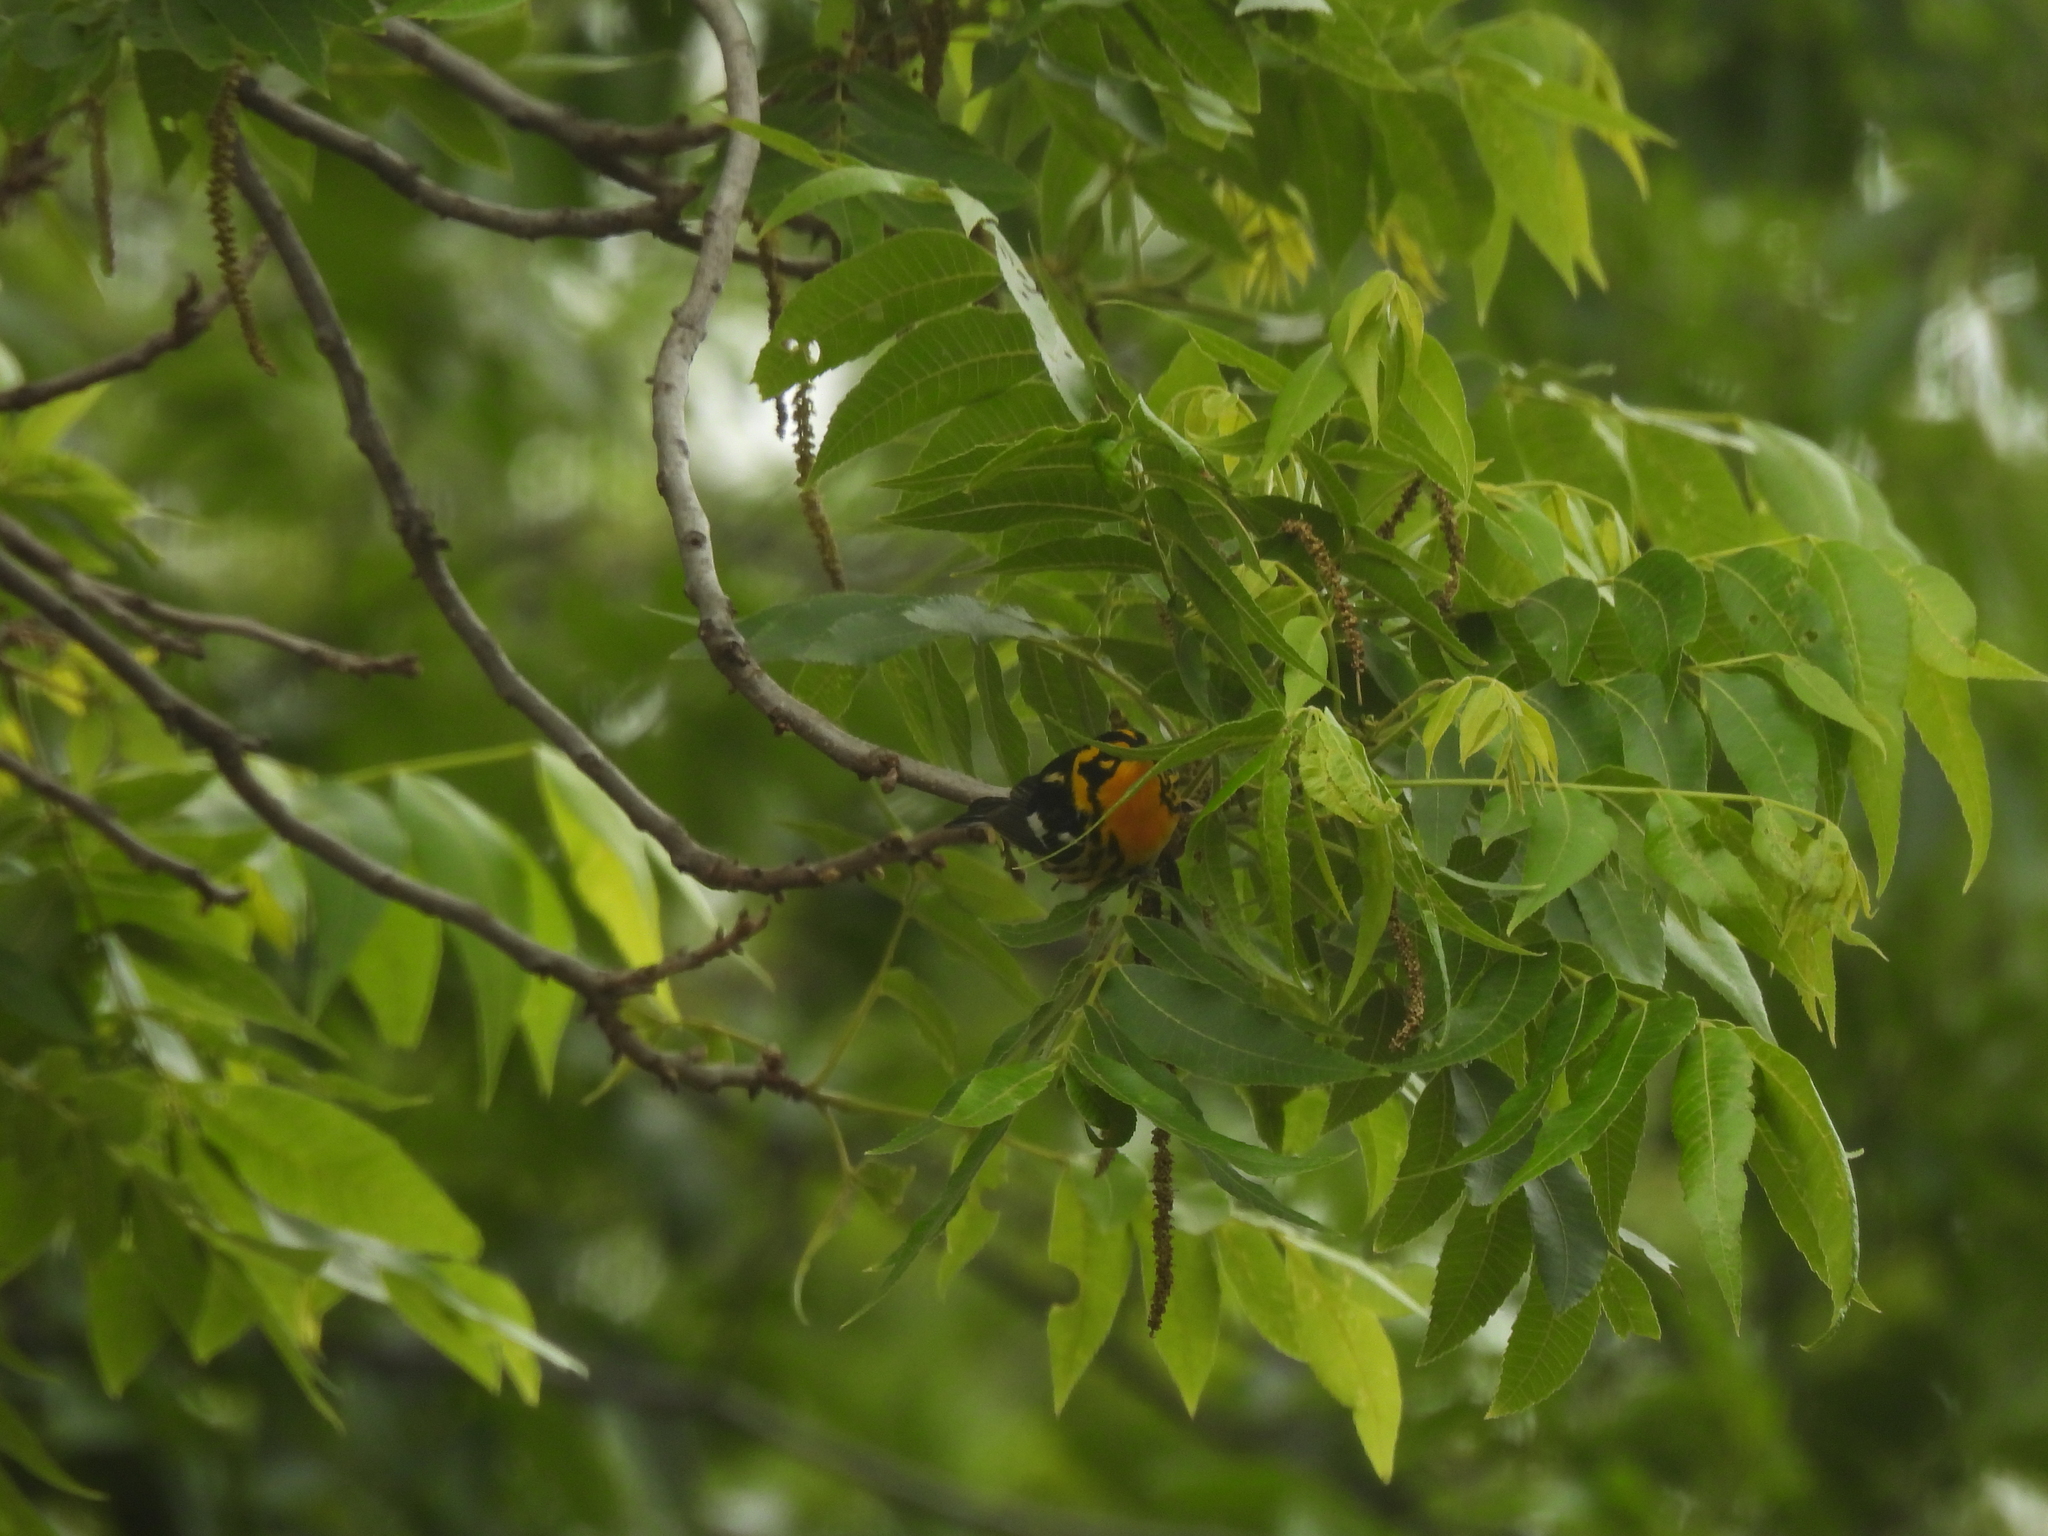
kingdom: Animalia
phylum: Chordata
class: Aves
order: Passeriformes
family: Parulidae
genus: Setophaga
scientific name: Setophaga fusca
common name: Blackburnian warbler
